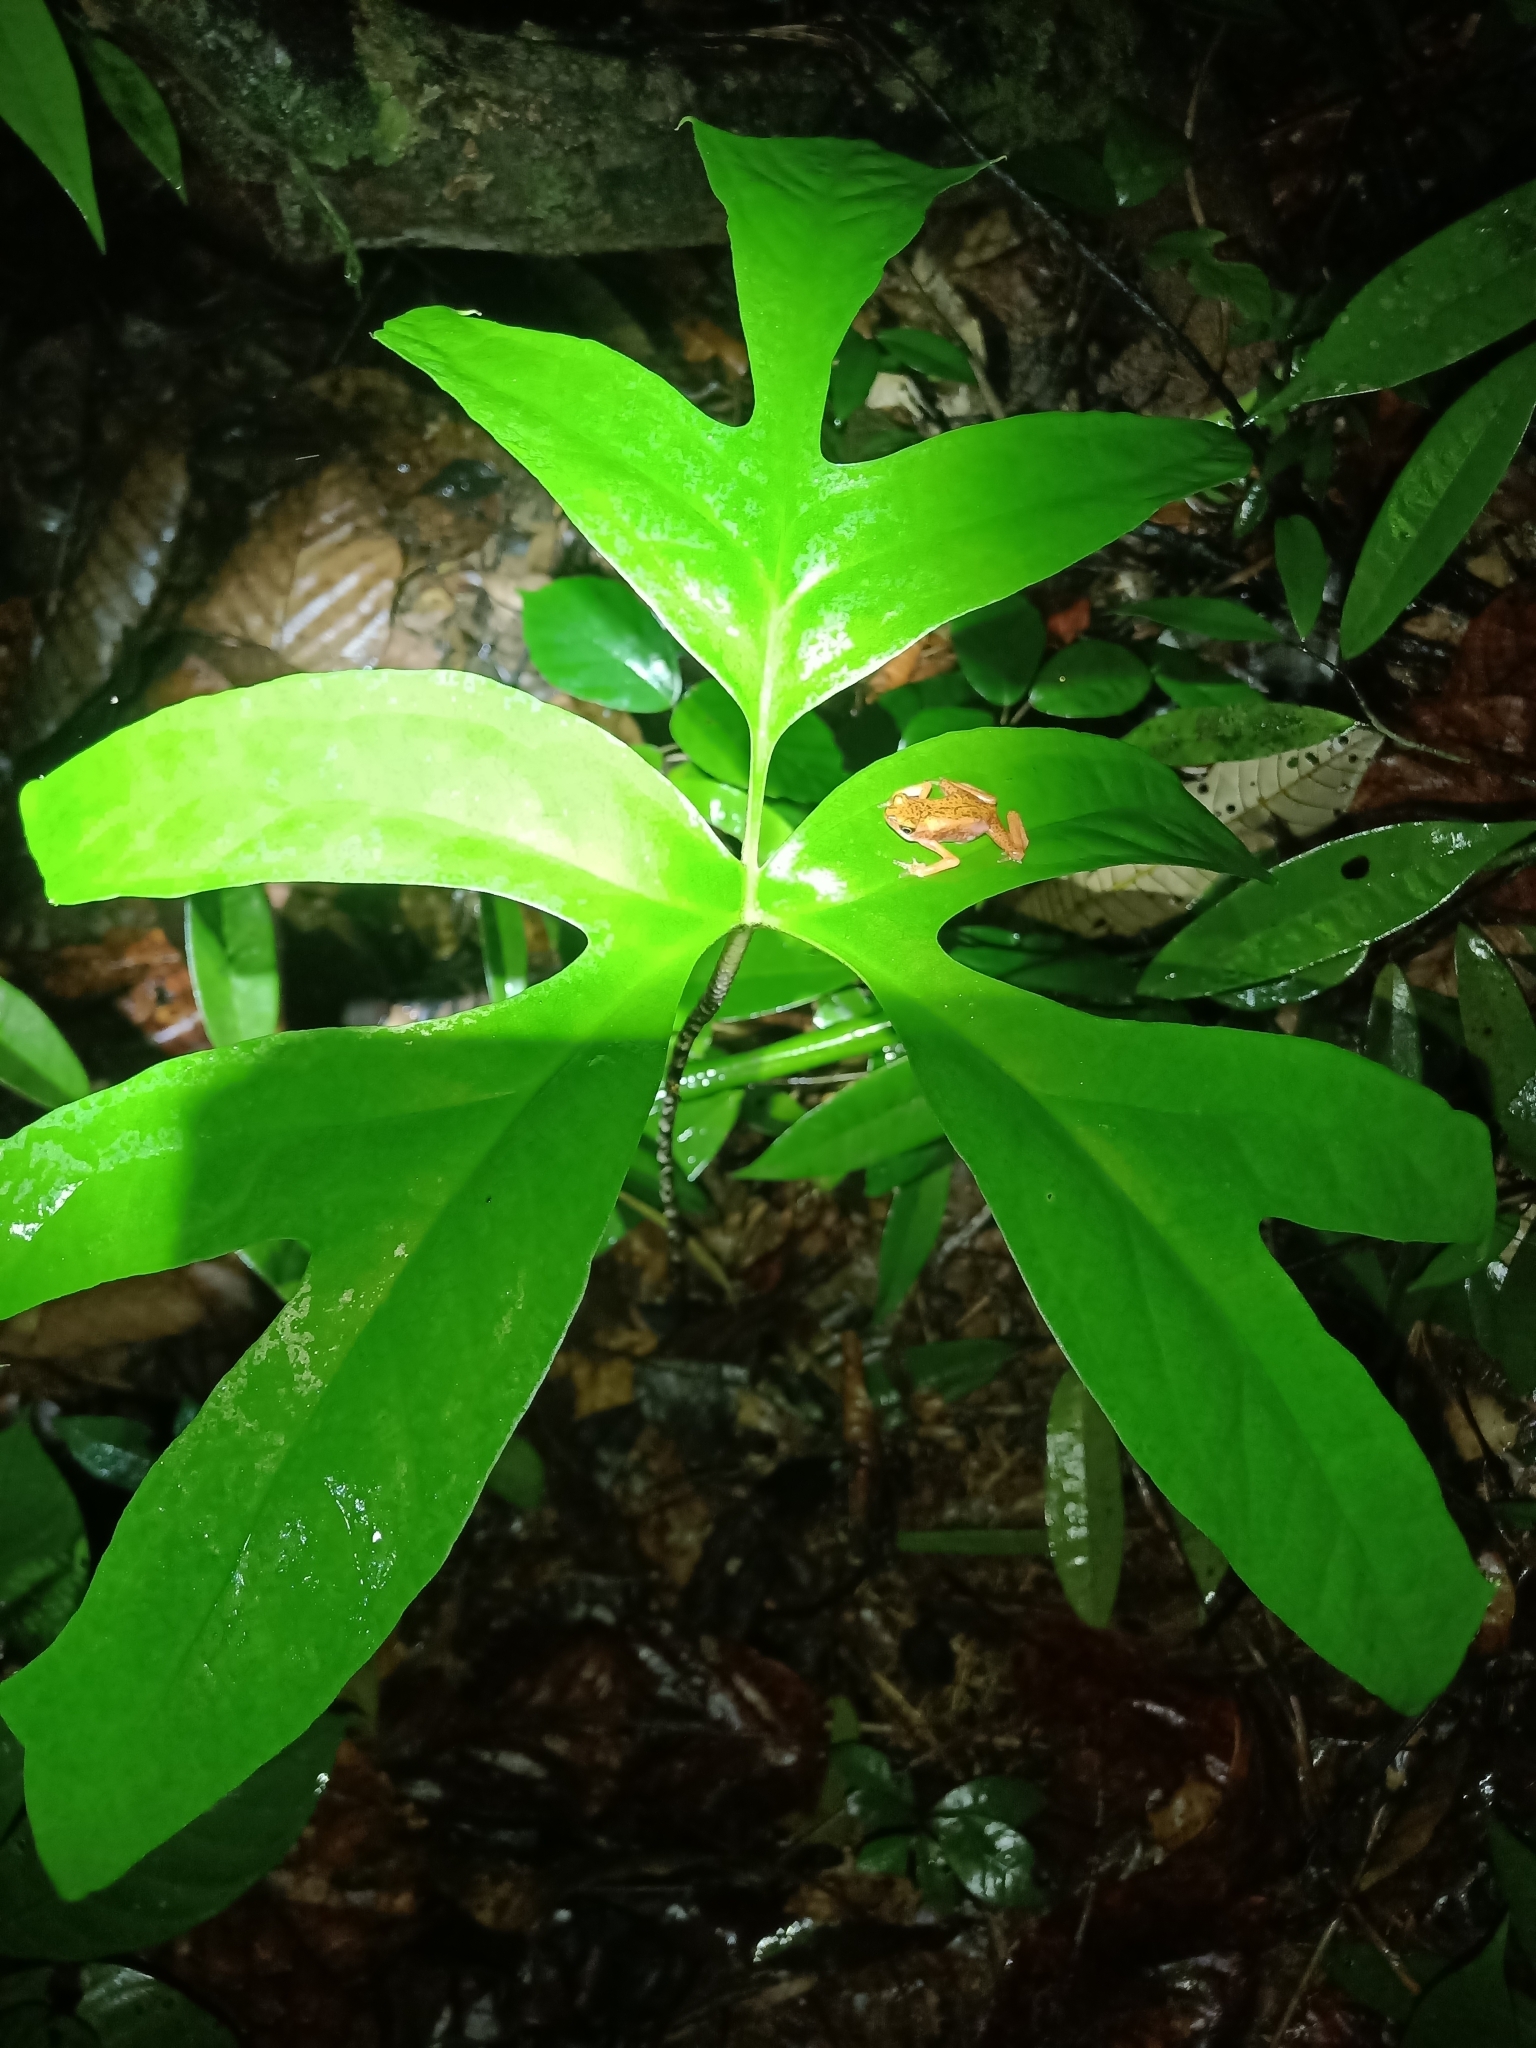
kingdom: Plantae
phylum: Tracheophyta
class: Liliopsida
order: Alismatales
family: Araceae
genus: Anaphyllopsis
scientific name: Anaphyllopsis americana
